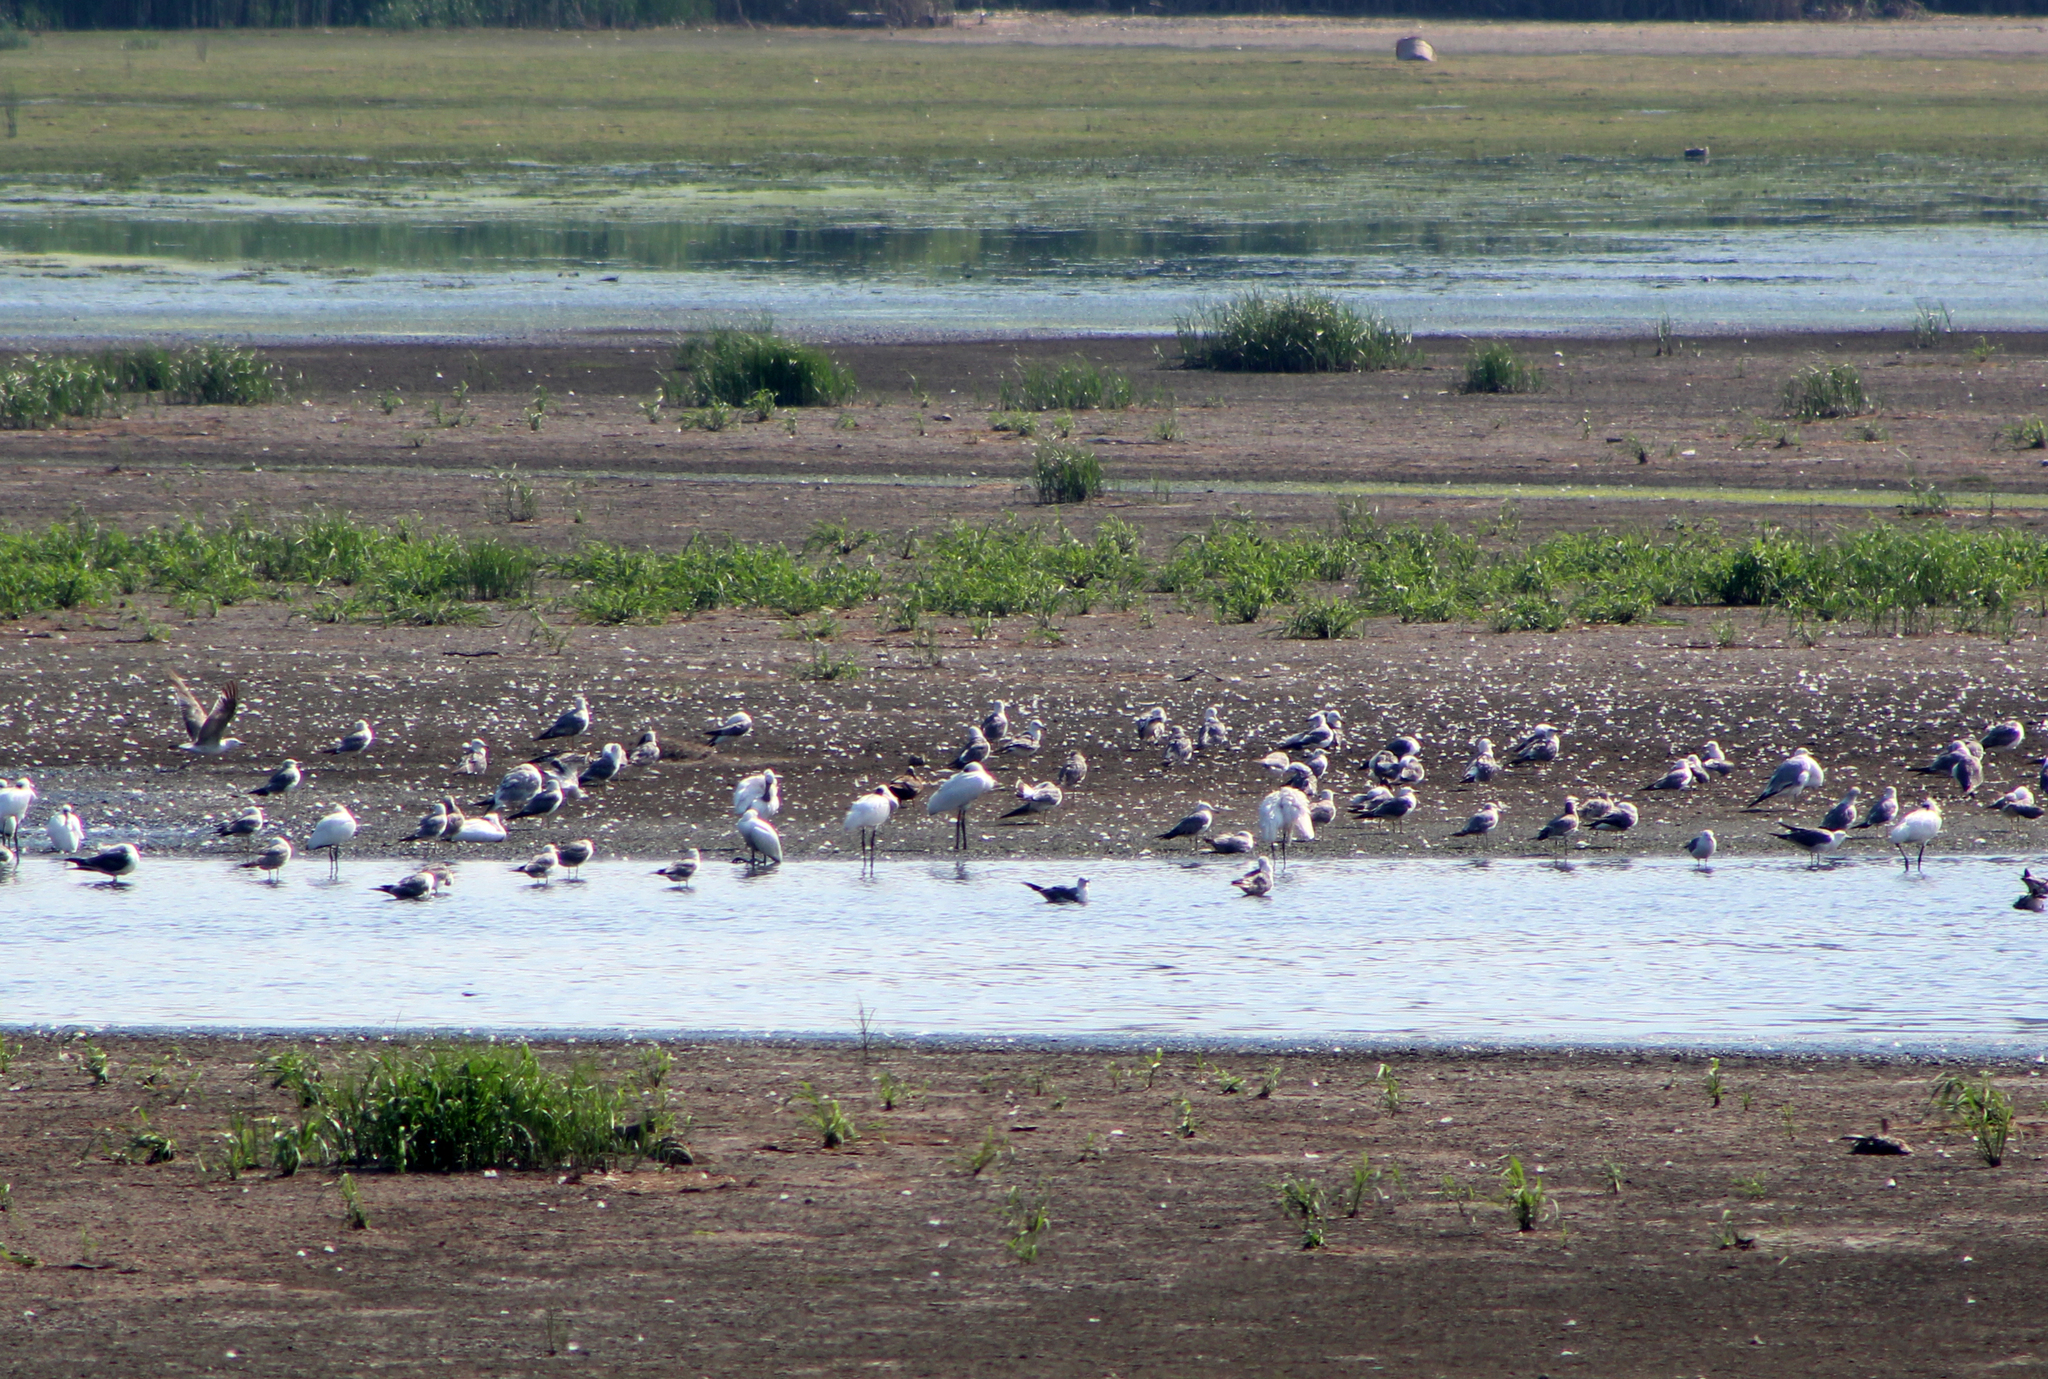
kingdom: Animalia
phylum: Chordata
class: Aves
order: Pelecaniformes
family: Threskiornithidae
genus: Platalea
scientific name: Platalea minor
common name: Black-faced spoonbill
